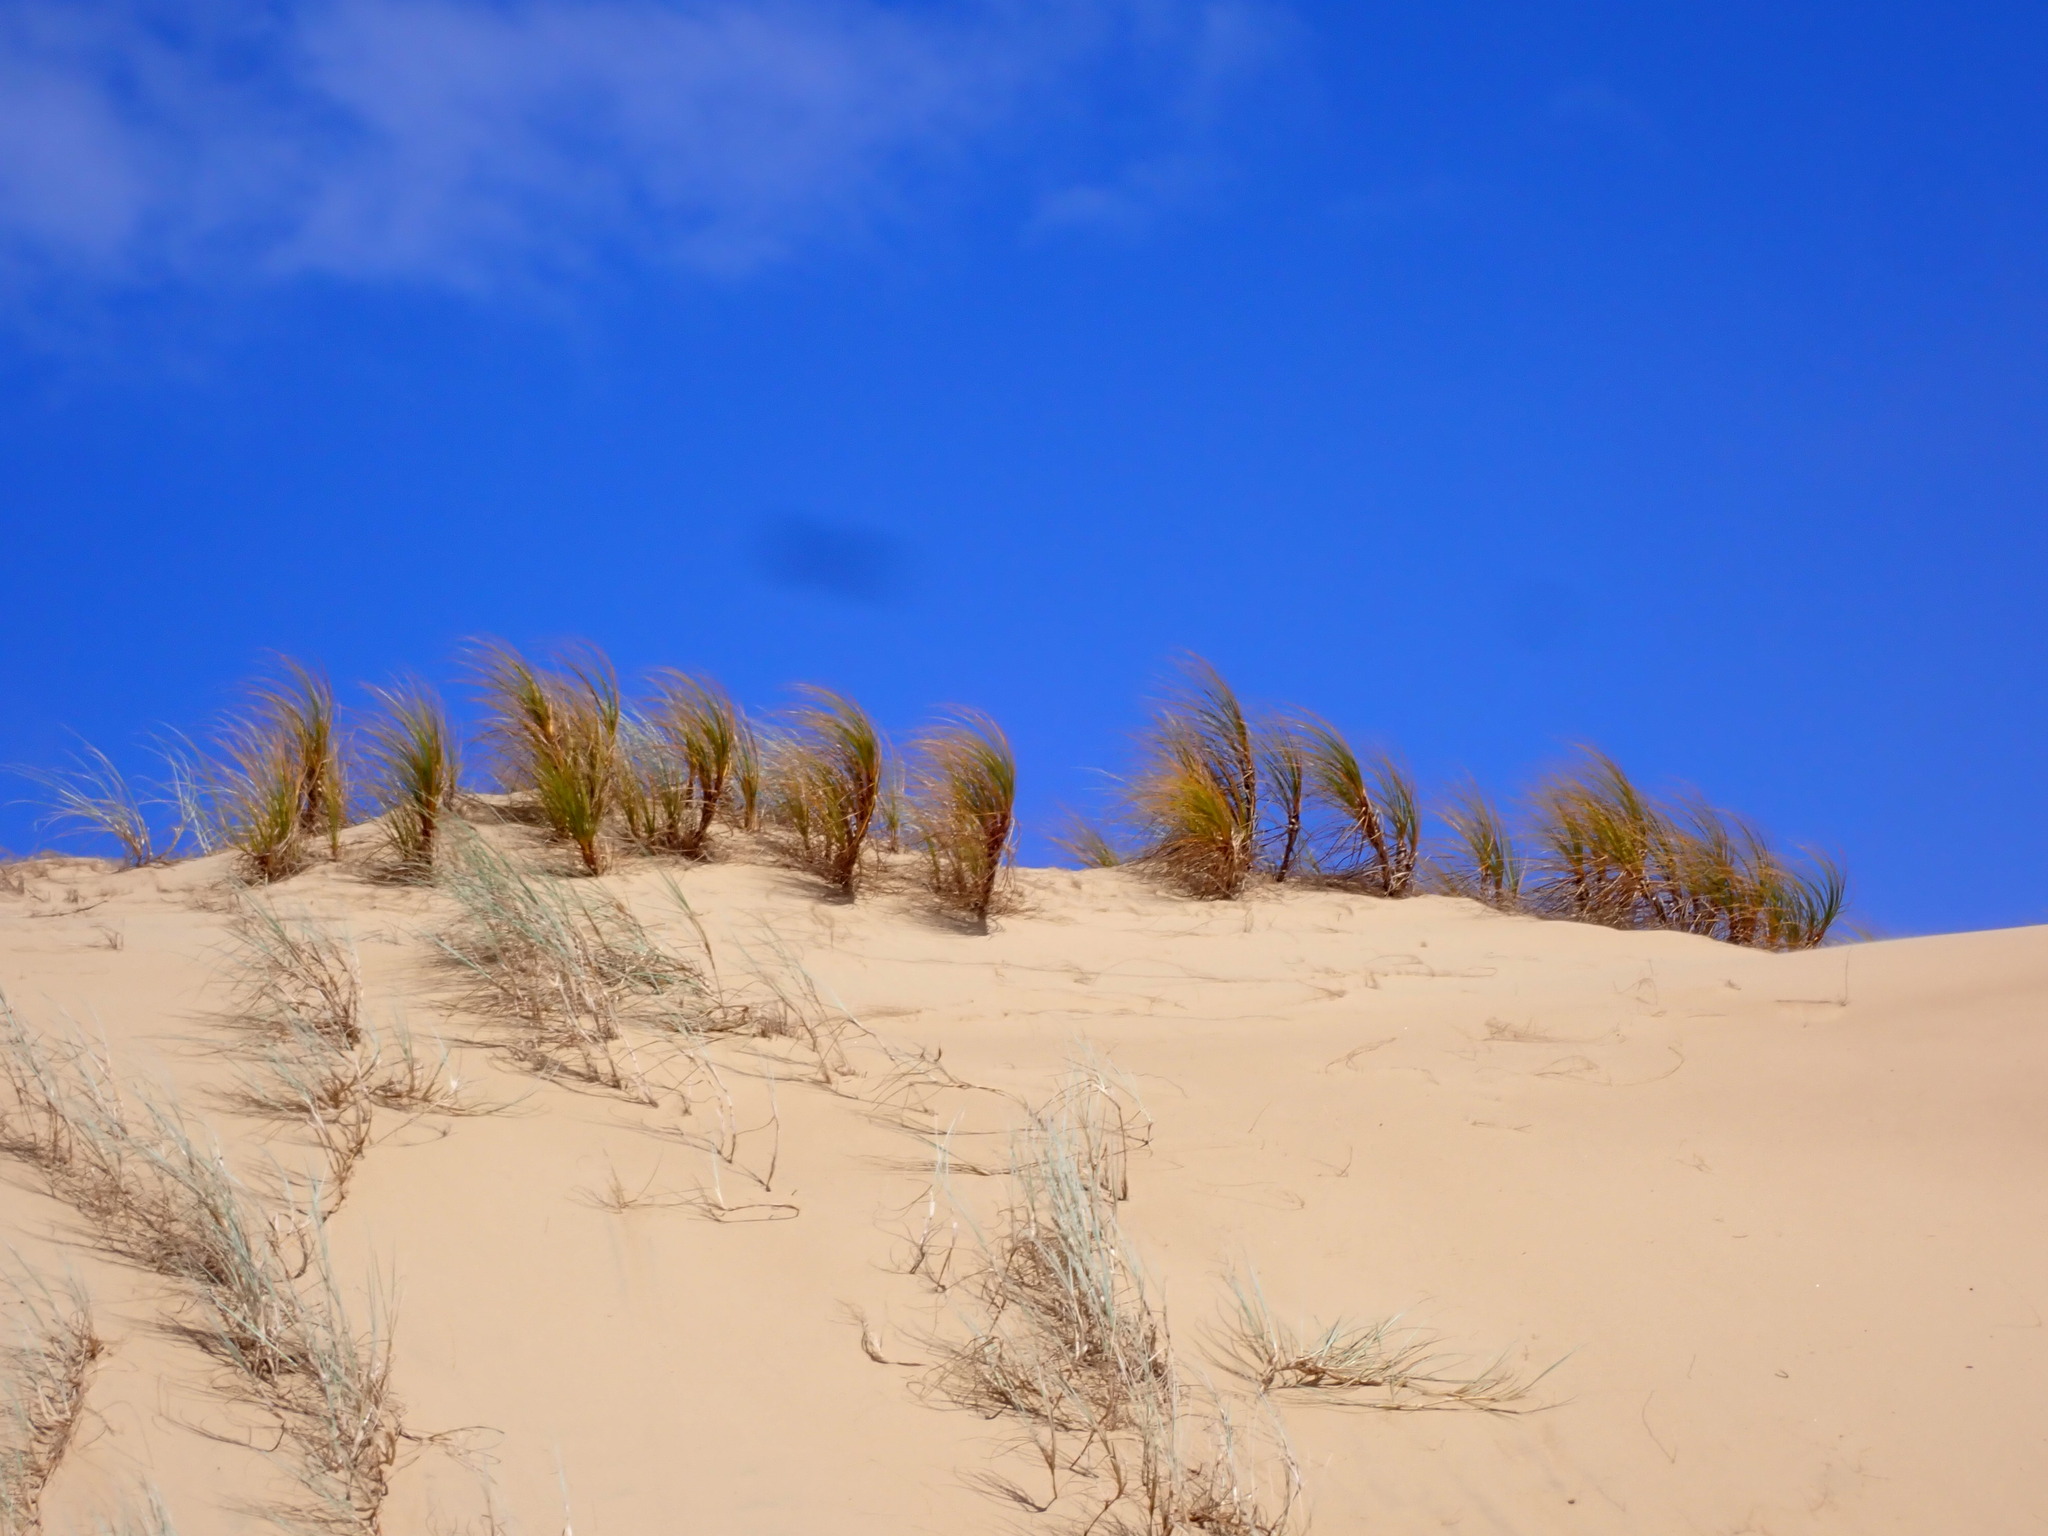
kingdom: Plantae
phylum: Tracheophyta
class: Liliopsida
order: Poales
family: Cyperaceae
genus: Ficinia
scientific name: Ficinia spiralis
